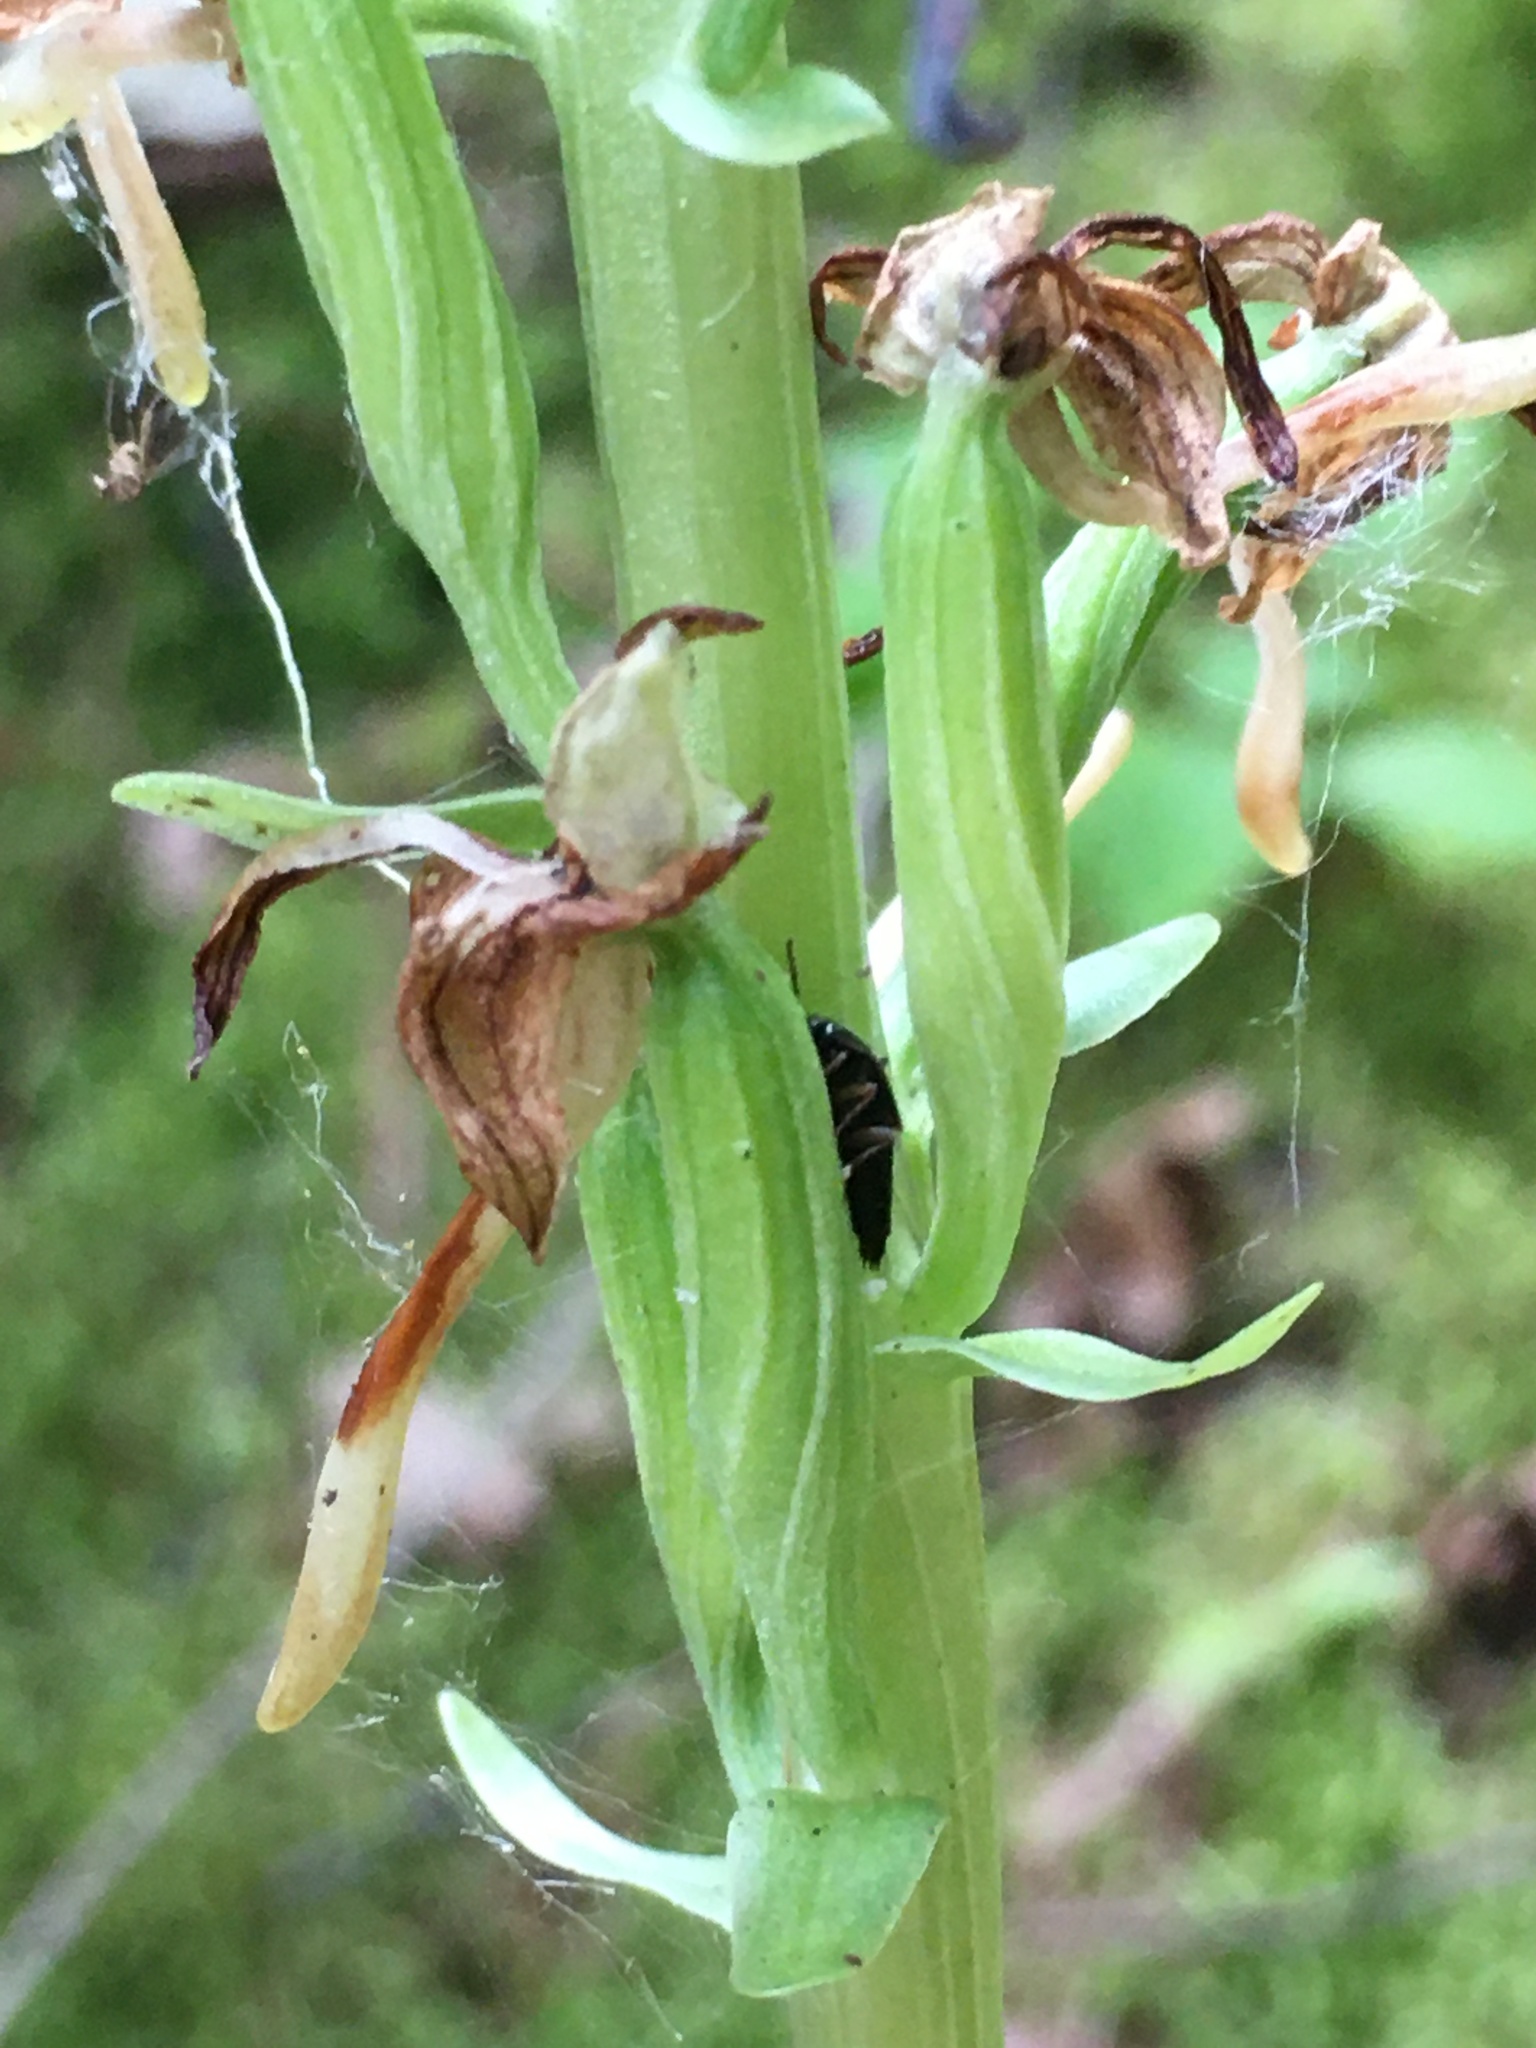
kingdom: Plantae
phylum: Tracheophyta
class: Liliopsida
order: Asparagales
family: Orchidaceae
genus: Platanthera
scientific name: Platanthera orbiculata
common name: Large round-leaved orchid
